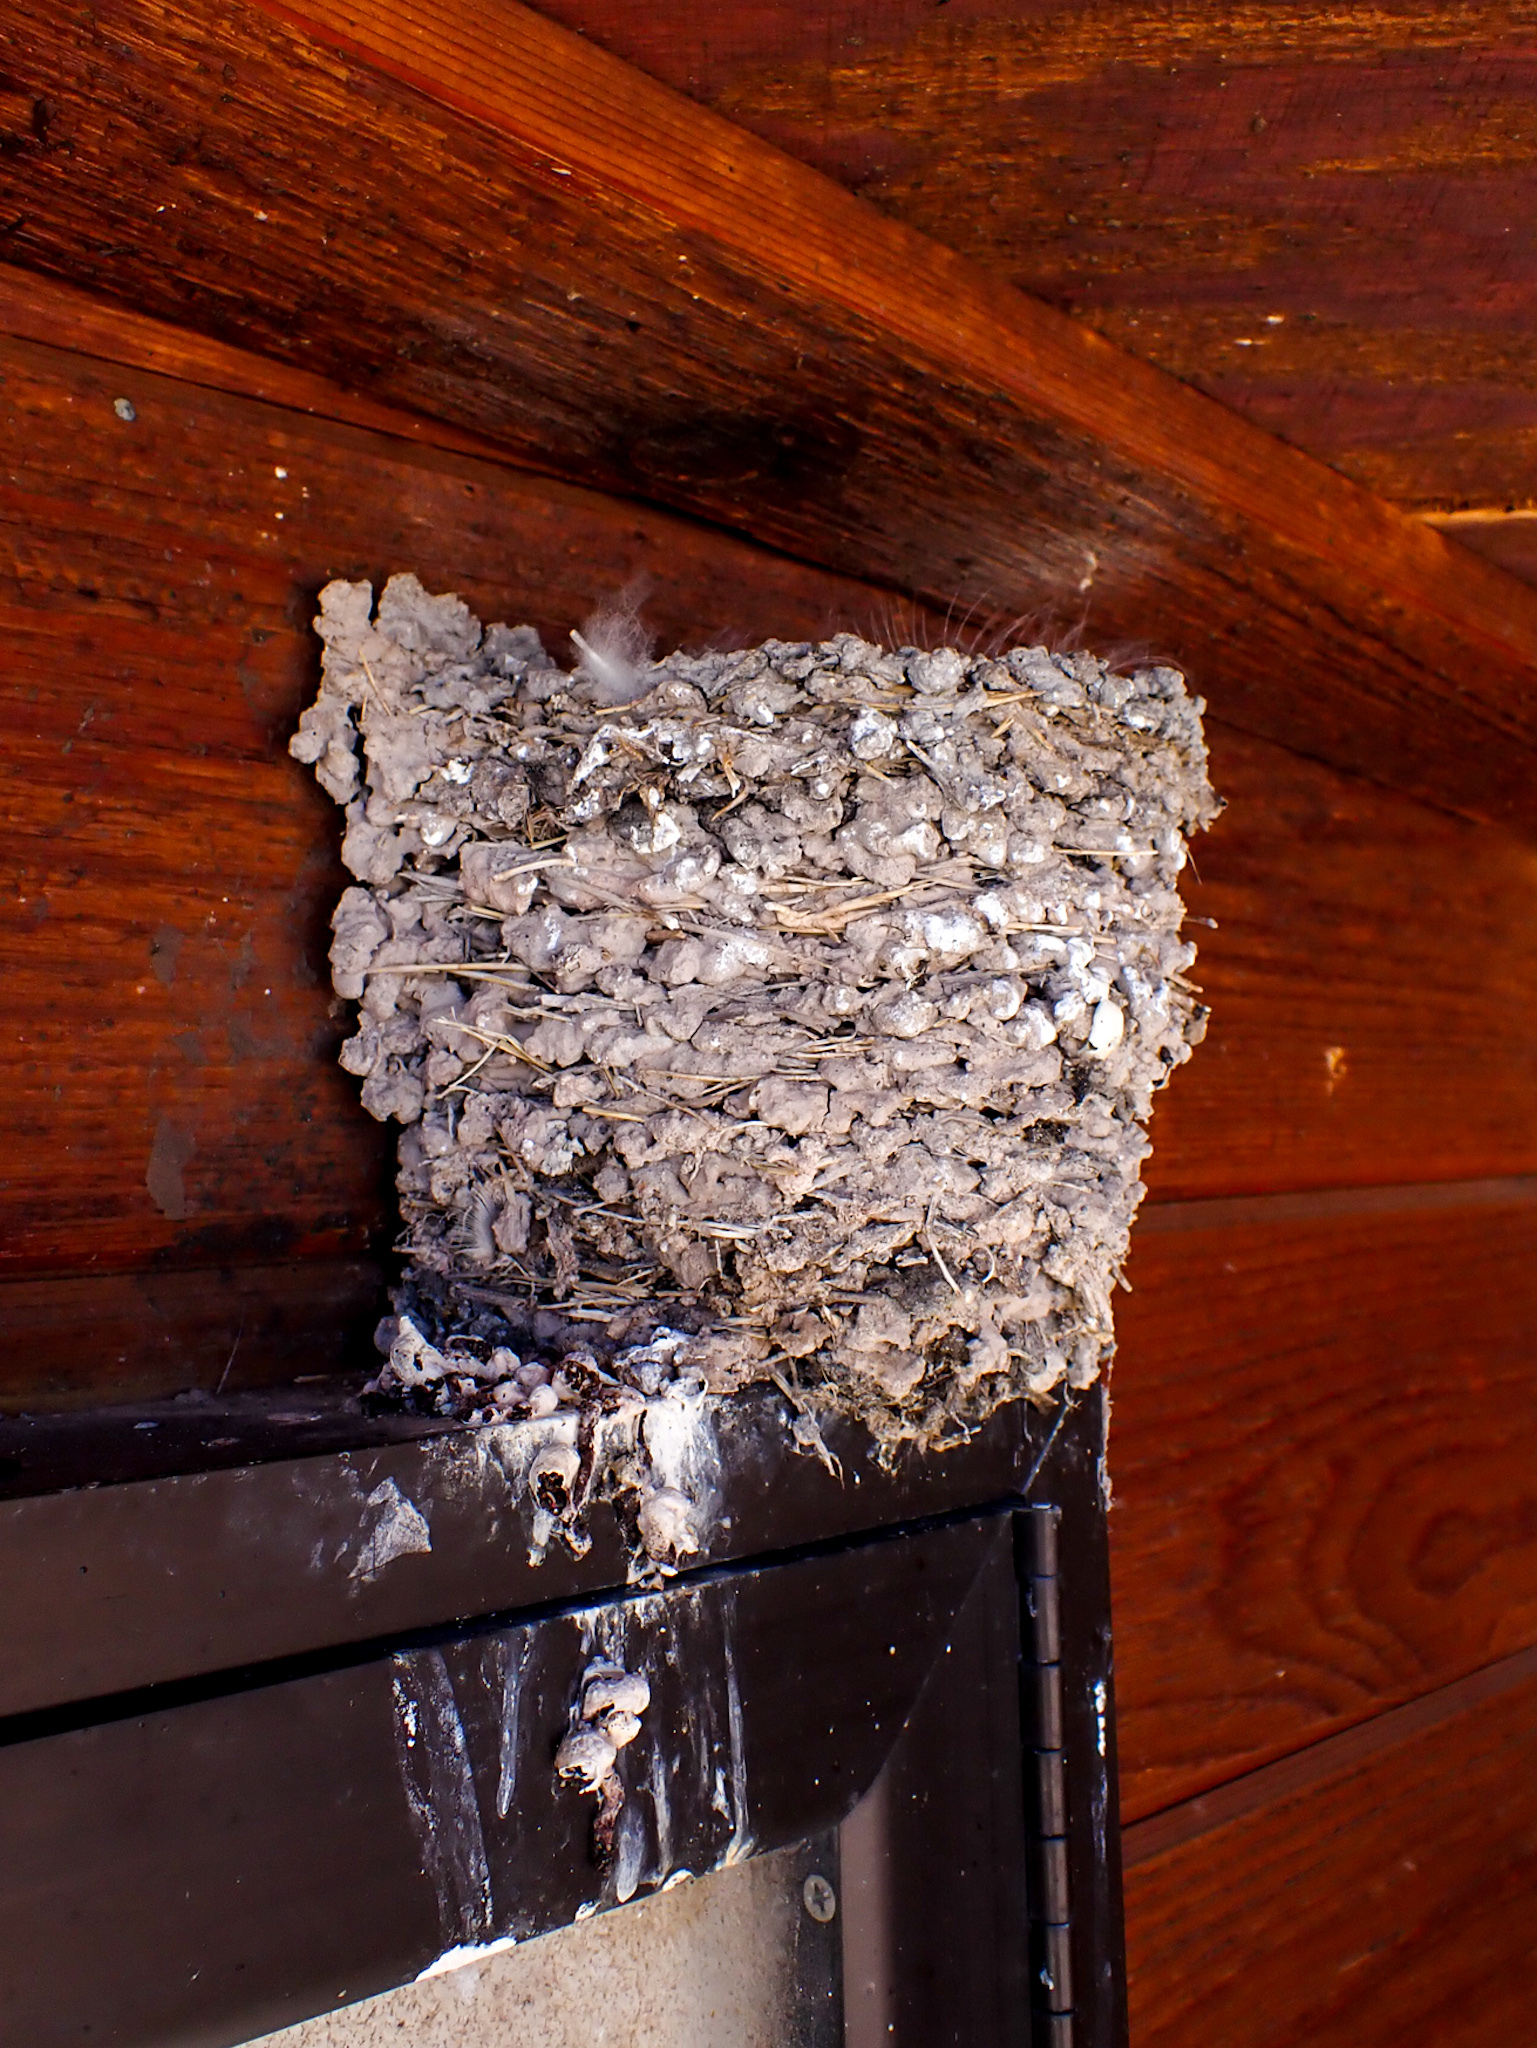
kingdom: Animalia
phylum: Chordata
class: Aves
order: Passeriformes
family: Hirundinidae
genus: Hirundo
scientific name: Hirundo rustica
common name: Barn swallow
